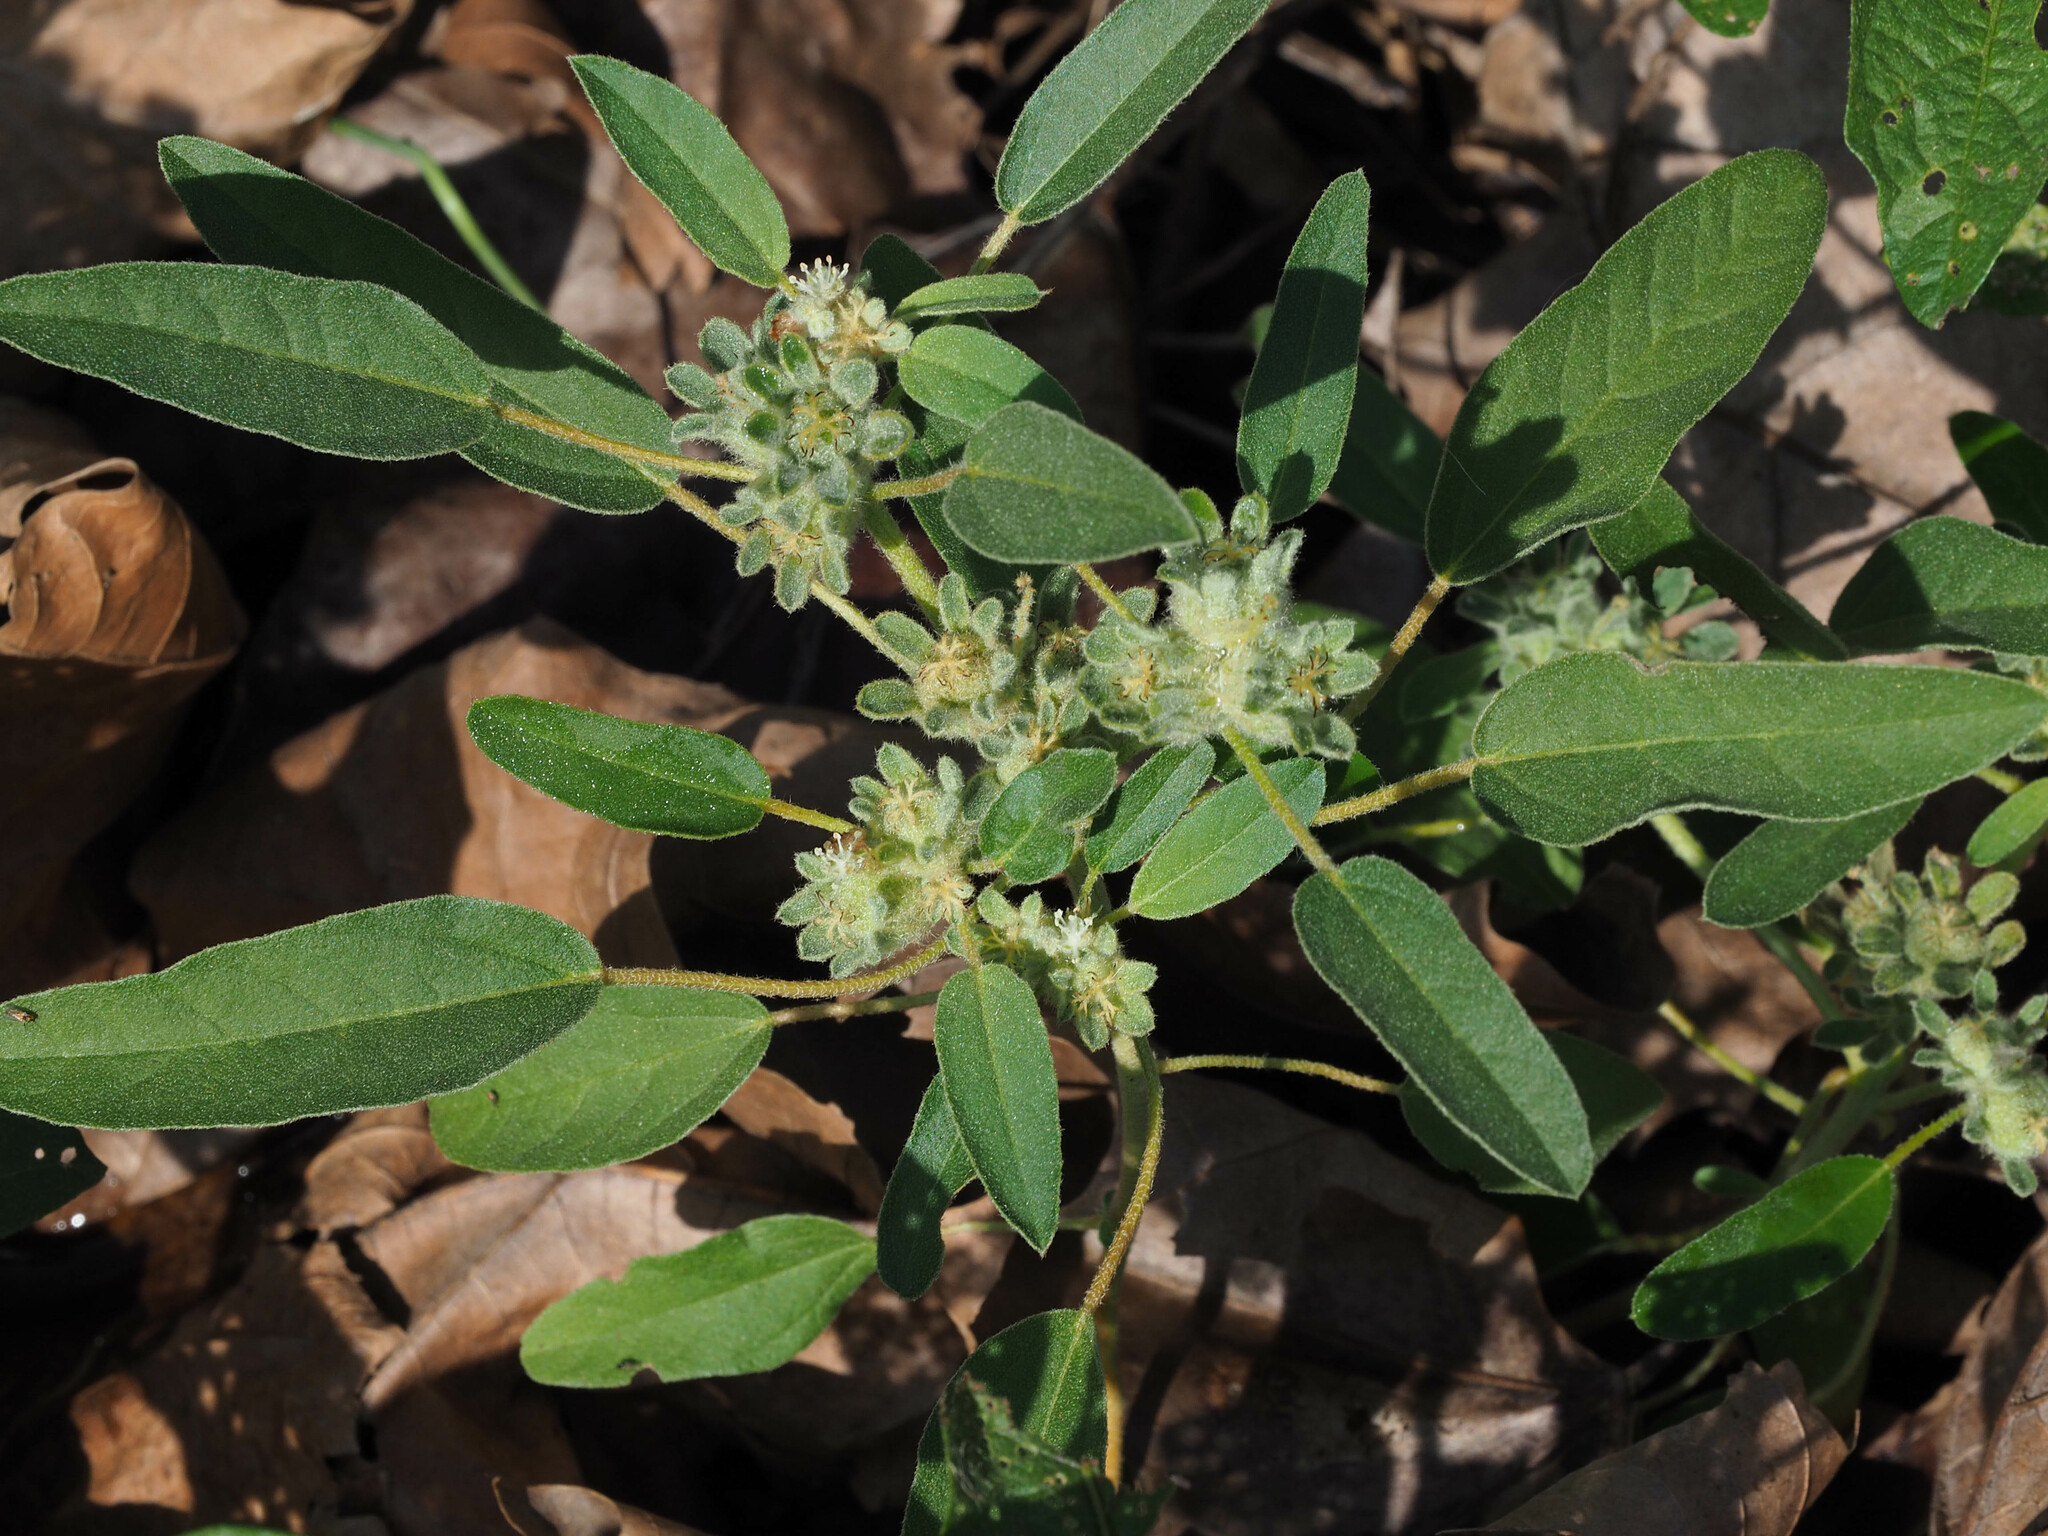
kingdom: Plantae
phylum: Tracheophyta
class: Magnoliopsida
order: Malpighiales
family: Euphorbiaceae
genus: Croton
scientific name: Croton capitatus
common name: Woolly croton
